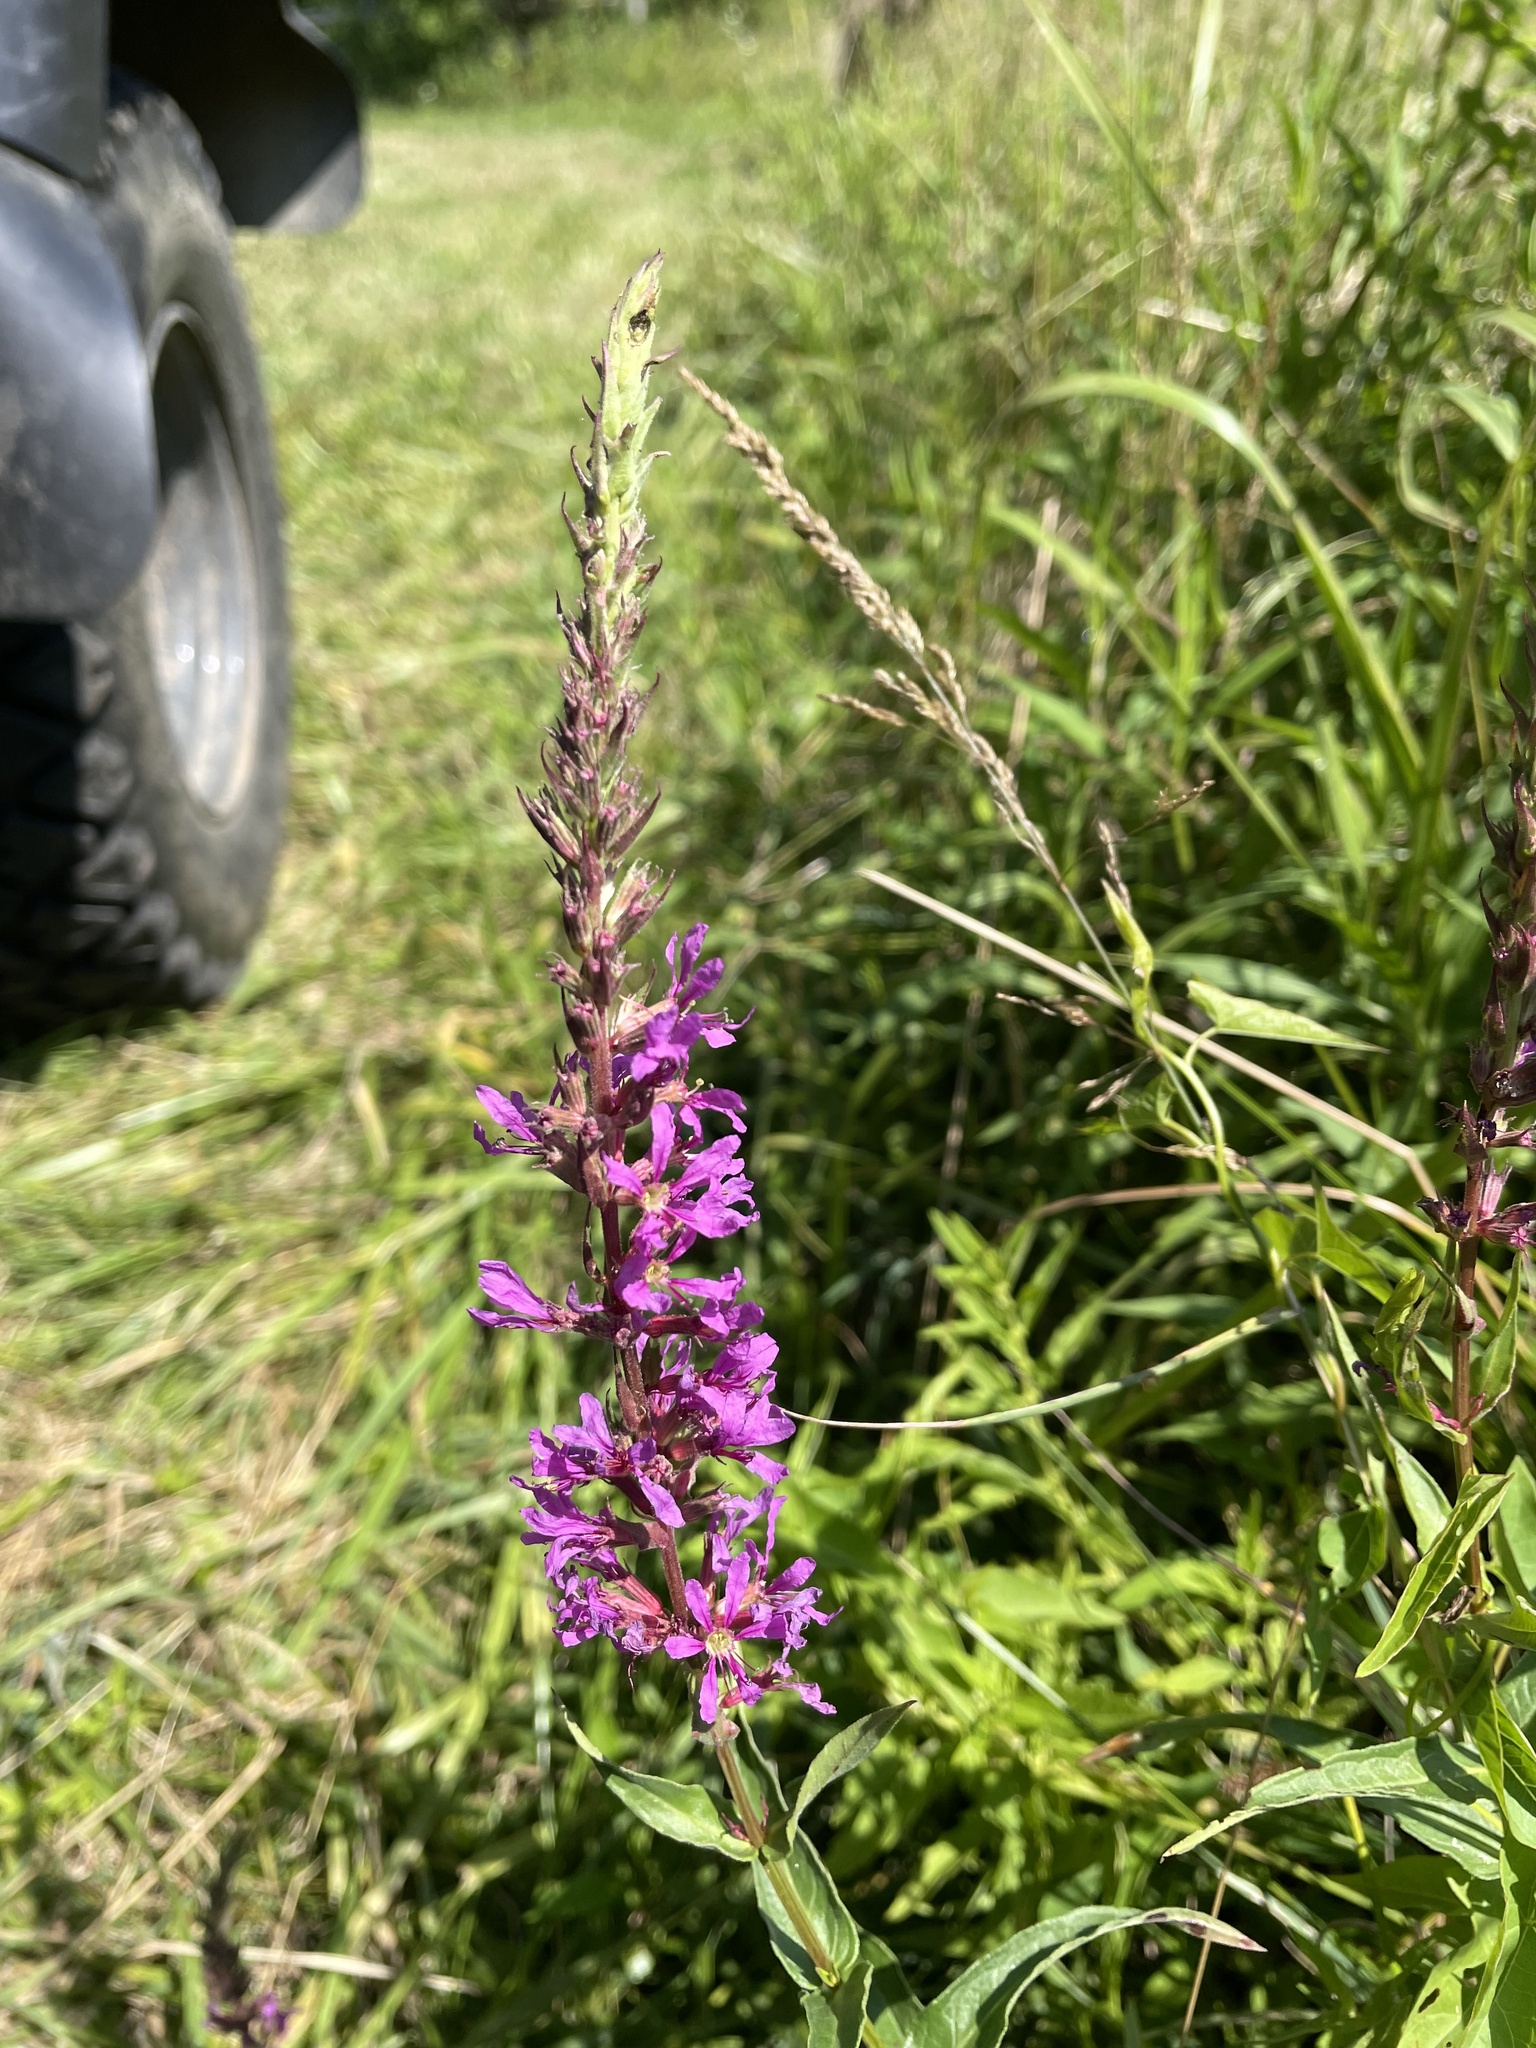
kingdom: Plantae
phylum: Tracheophyta
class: Magnoliopsida
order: Myrtales
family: Lythraceae
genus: Lythrum
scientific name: Lythrum salicaria
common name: Purple loosestrife
